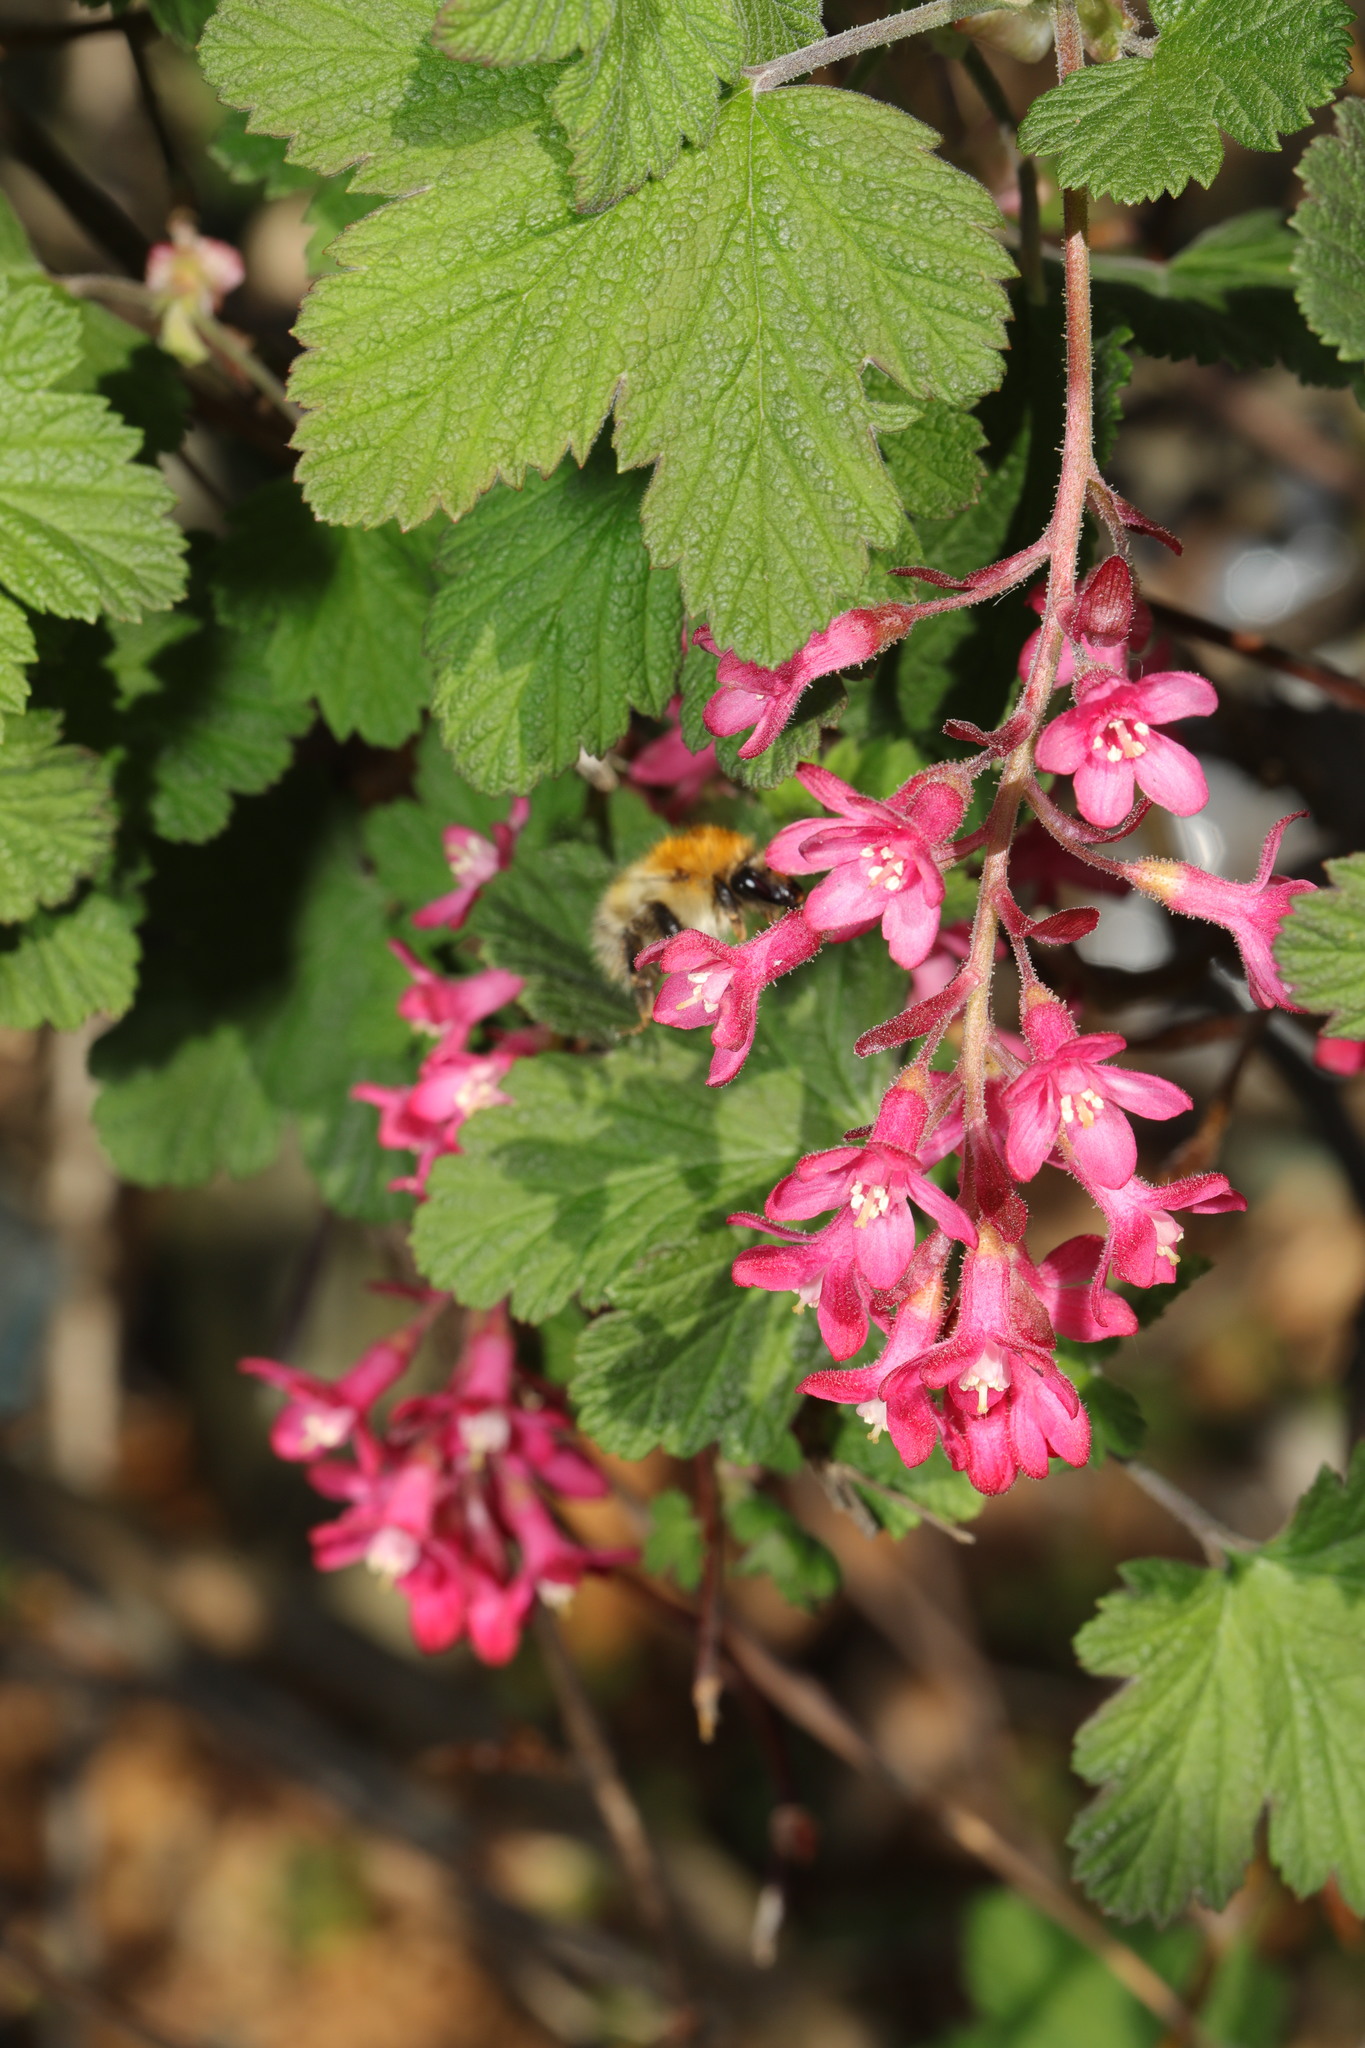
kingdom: Animalia
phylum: Arthropoda
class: Insecta
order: Hymenoptera
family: Apidae
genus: Bombus
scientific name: Bombus pascuorum
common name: Common carder bee
